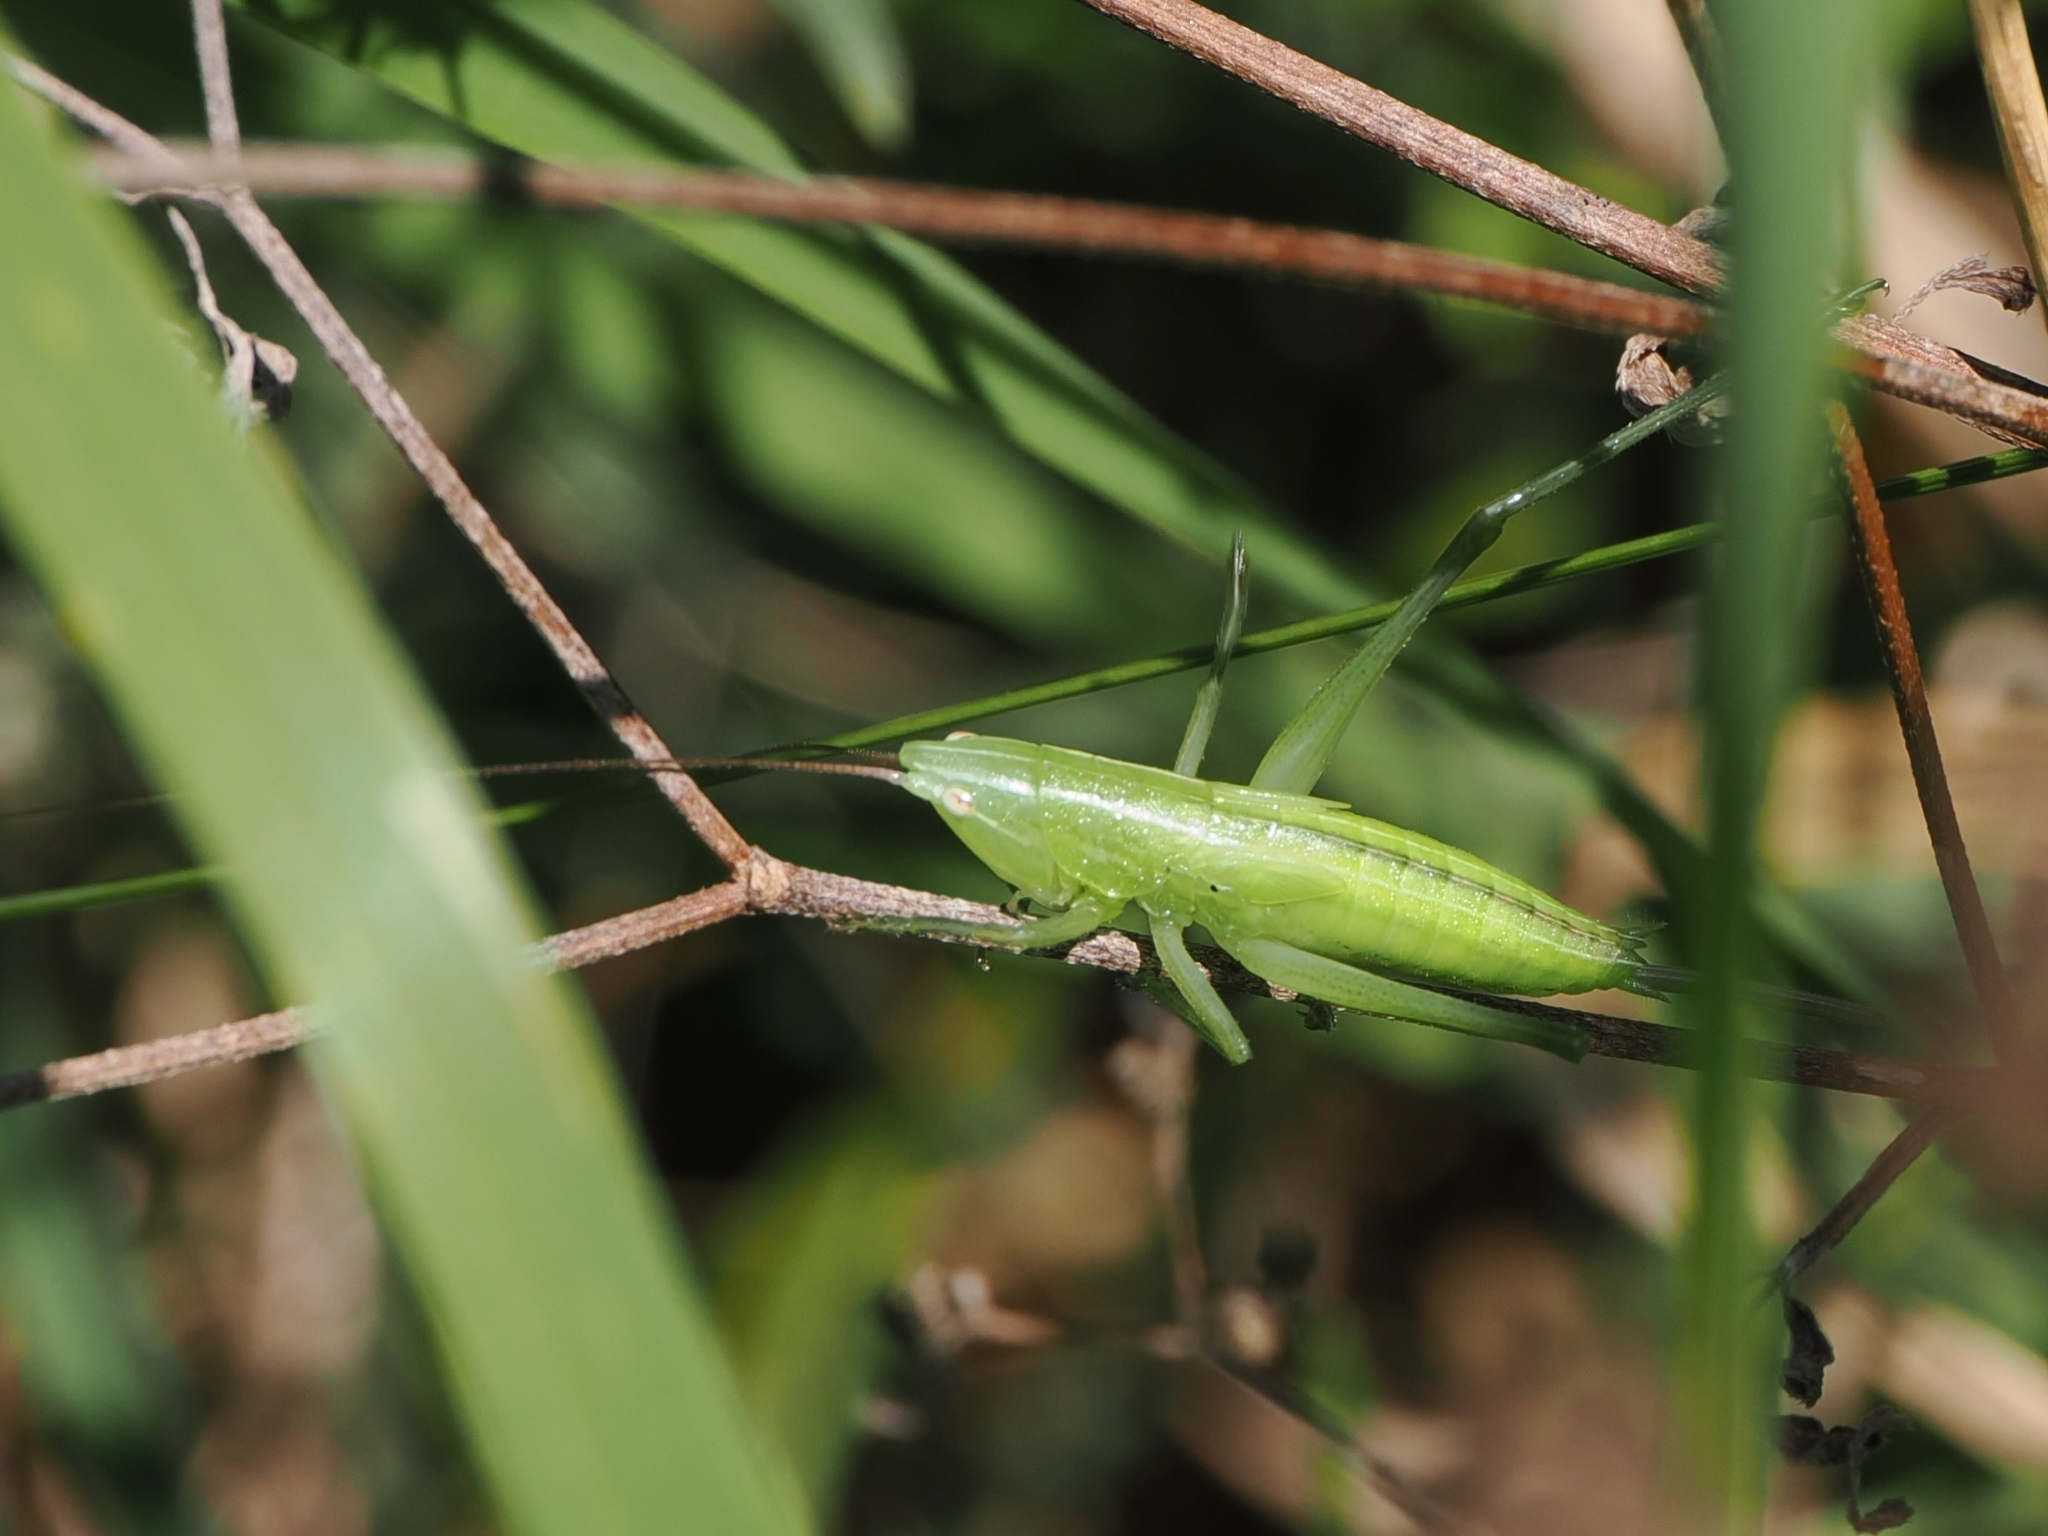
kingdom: Animalia
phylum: Arthropoda
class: Insecta
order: Orthoptera
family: Tettigoniidae
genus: Ruspolia
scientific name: Ruspolia nitidula
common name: Large conehead
